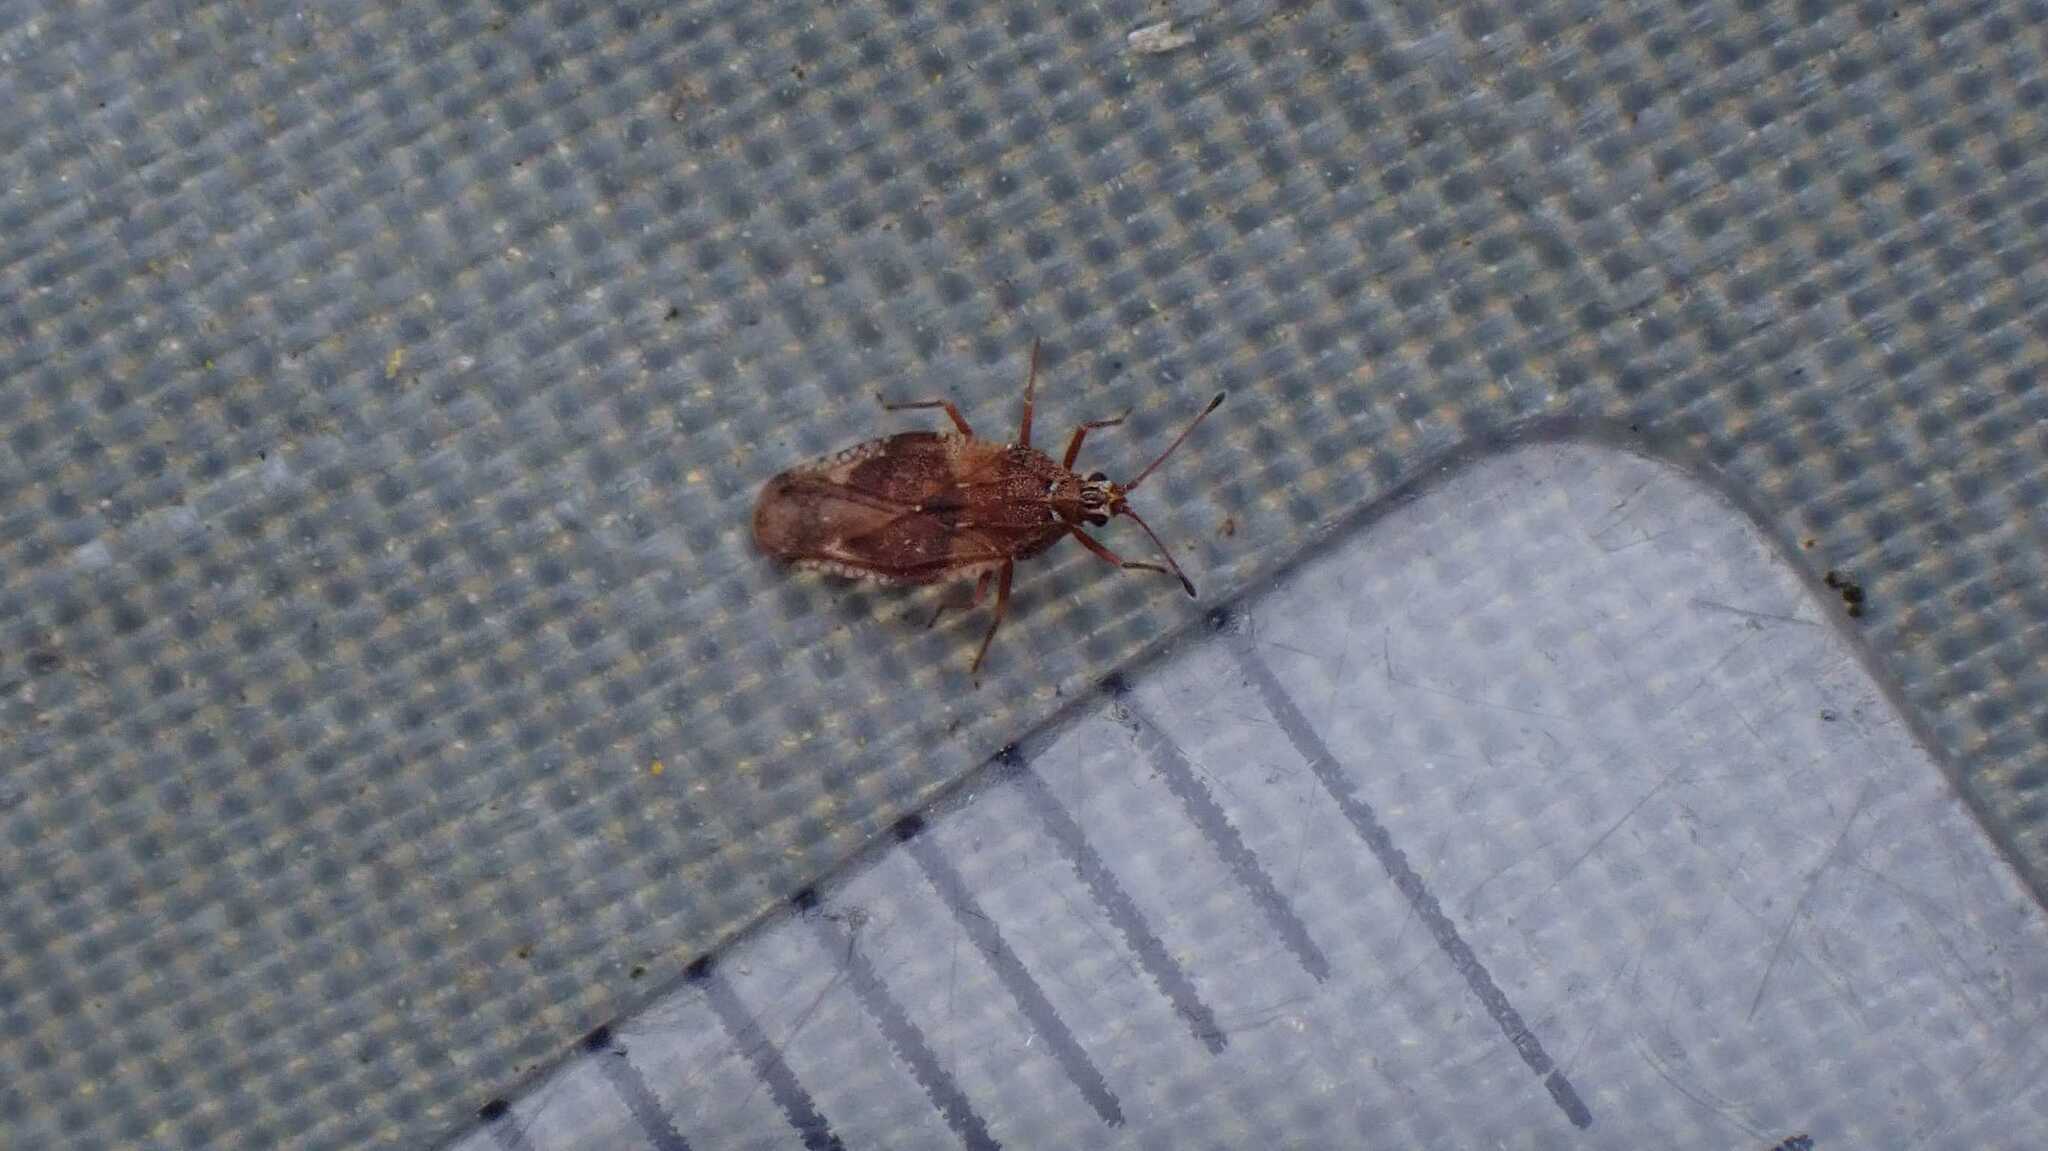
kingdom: Animalia
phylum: Arthropoda
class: Insecta
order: Hemiptera
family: Tingidae
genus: Physatocheila
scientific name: Physatocheila dumetorum
